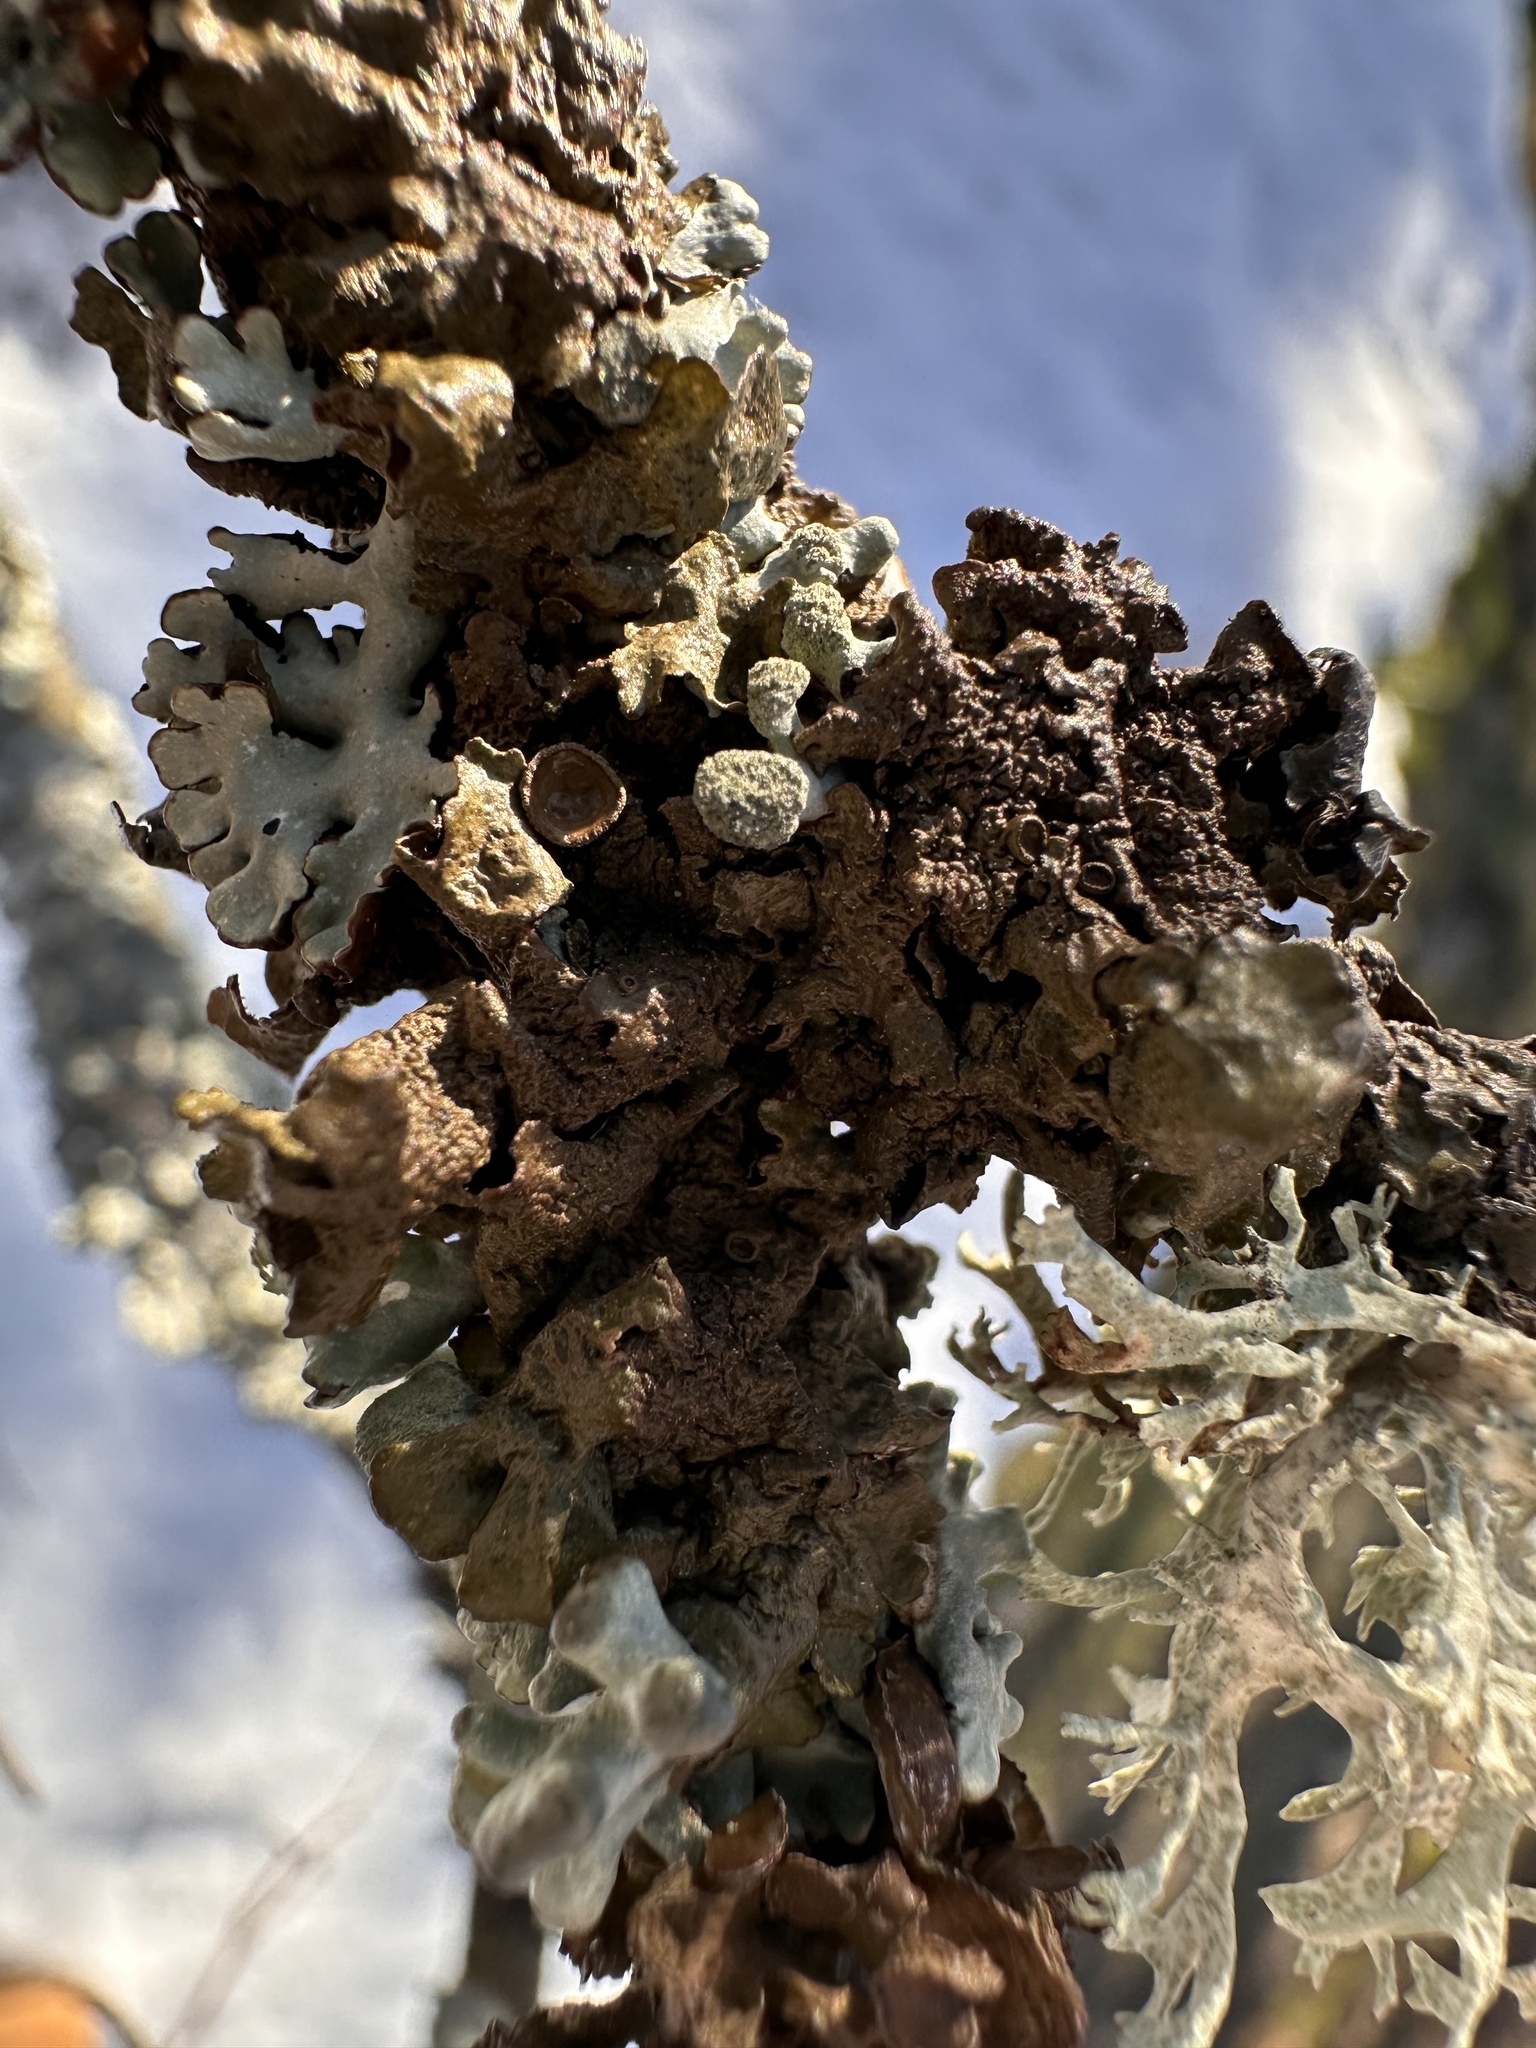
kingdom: Fungi
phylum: Ascomycota
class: Lecanoromycetes
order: Lecanorales
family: Parmeliaceae
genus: Hypogymnia
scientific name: Hypogymnia tubulosa
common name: Powder-headed tube lichen
